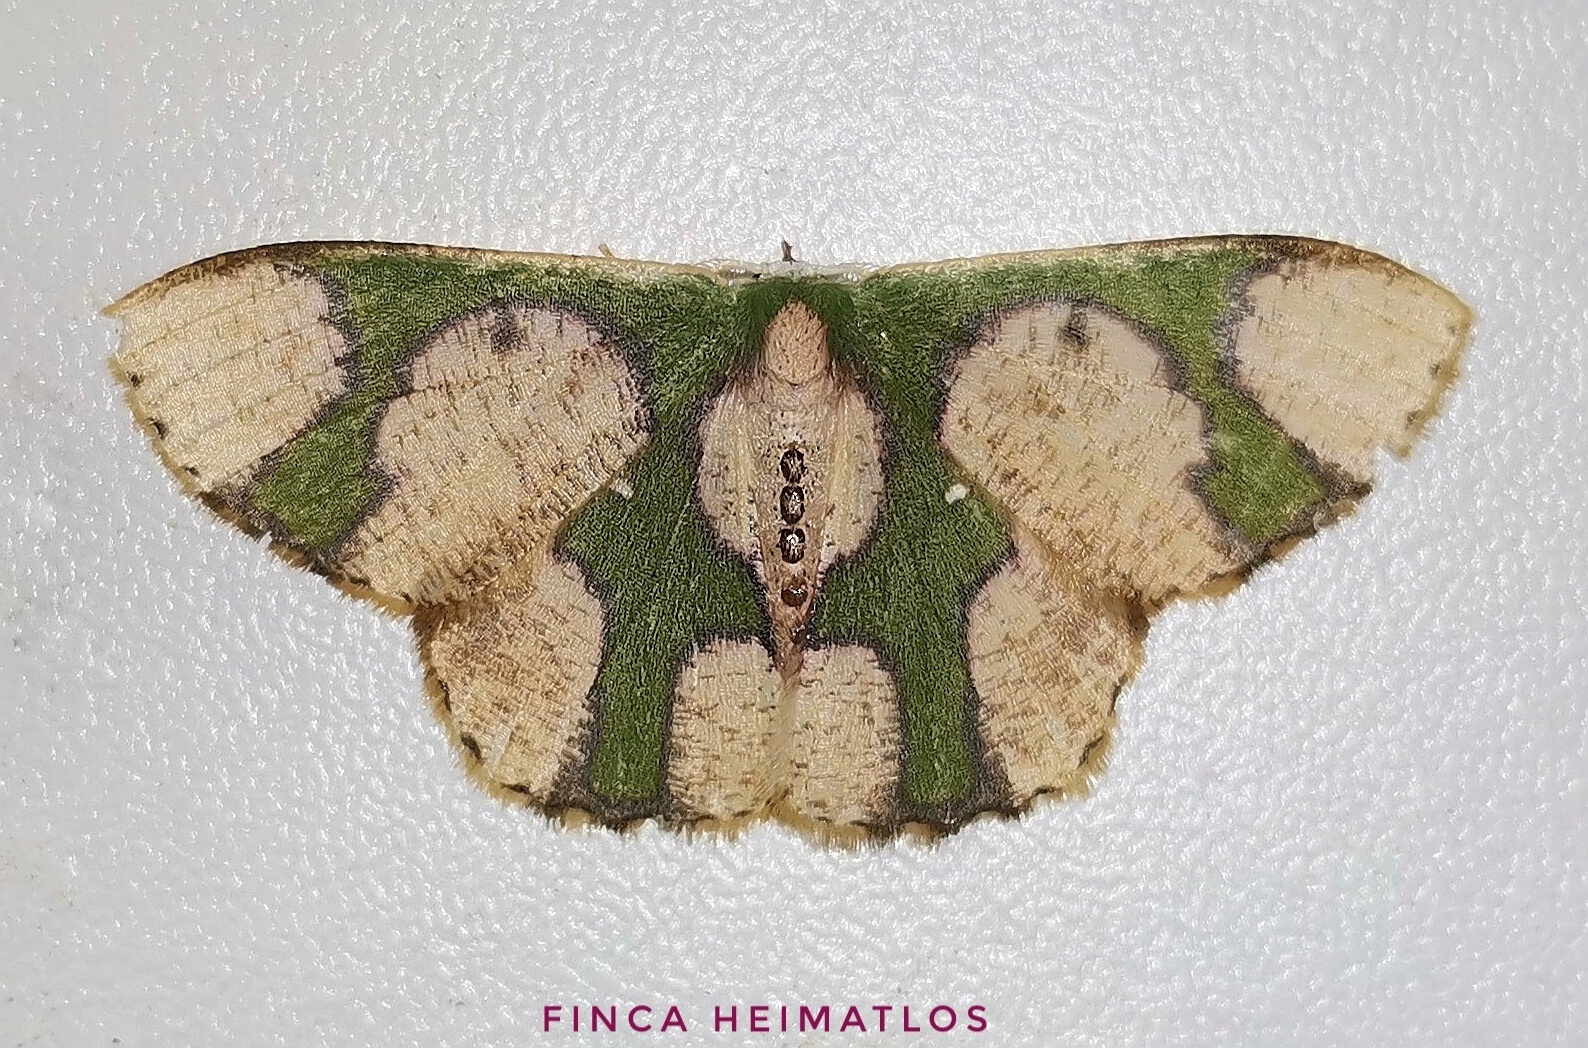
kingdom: Animalia
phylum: Arthropoda
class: Insecta
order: Lepidoptera
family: Geometridae
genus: Oospila
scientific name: Oospila albicoma
